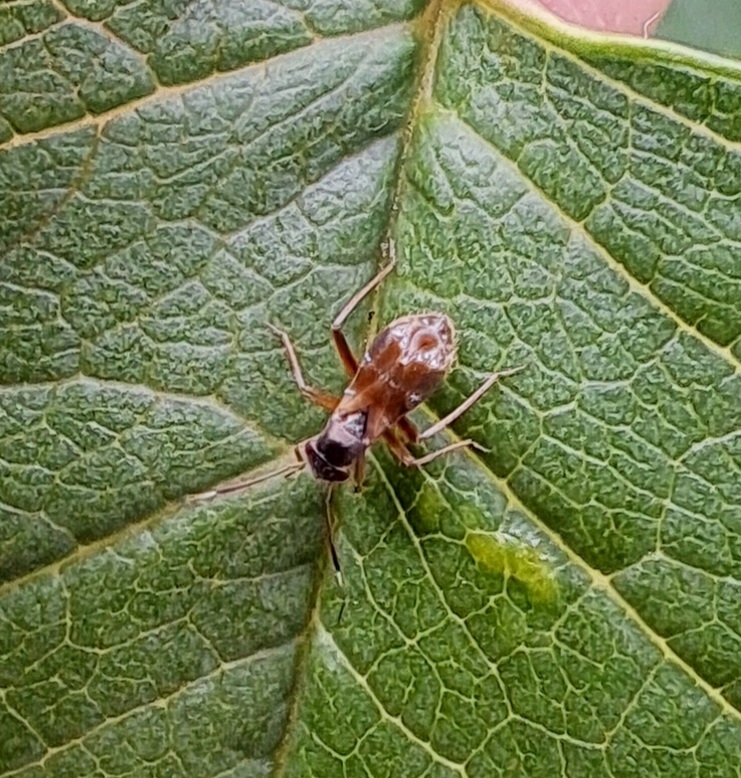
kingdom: Animalia
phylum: Arthropoda
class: Insecta
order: Hemiptera
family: Miridae
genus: Pilophorus
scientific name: Pilophorus confusus
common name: Plant bug
